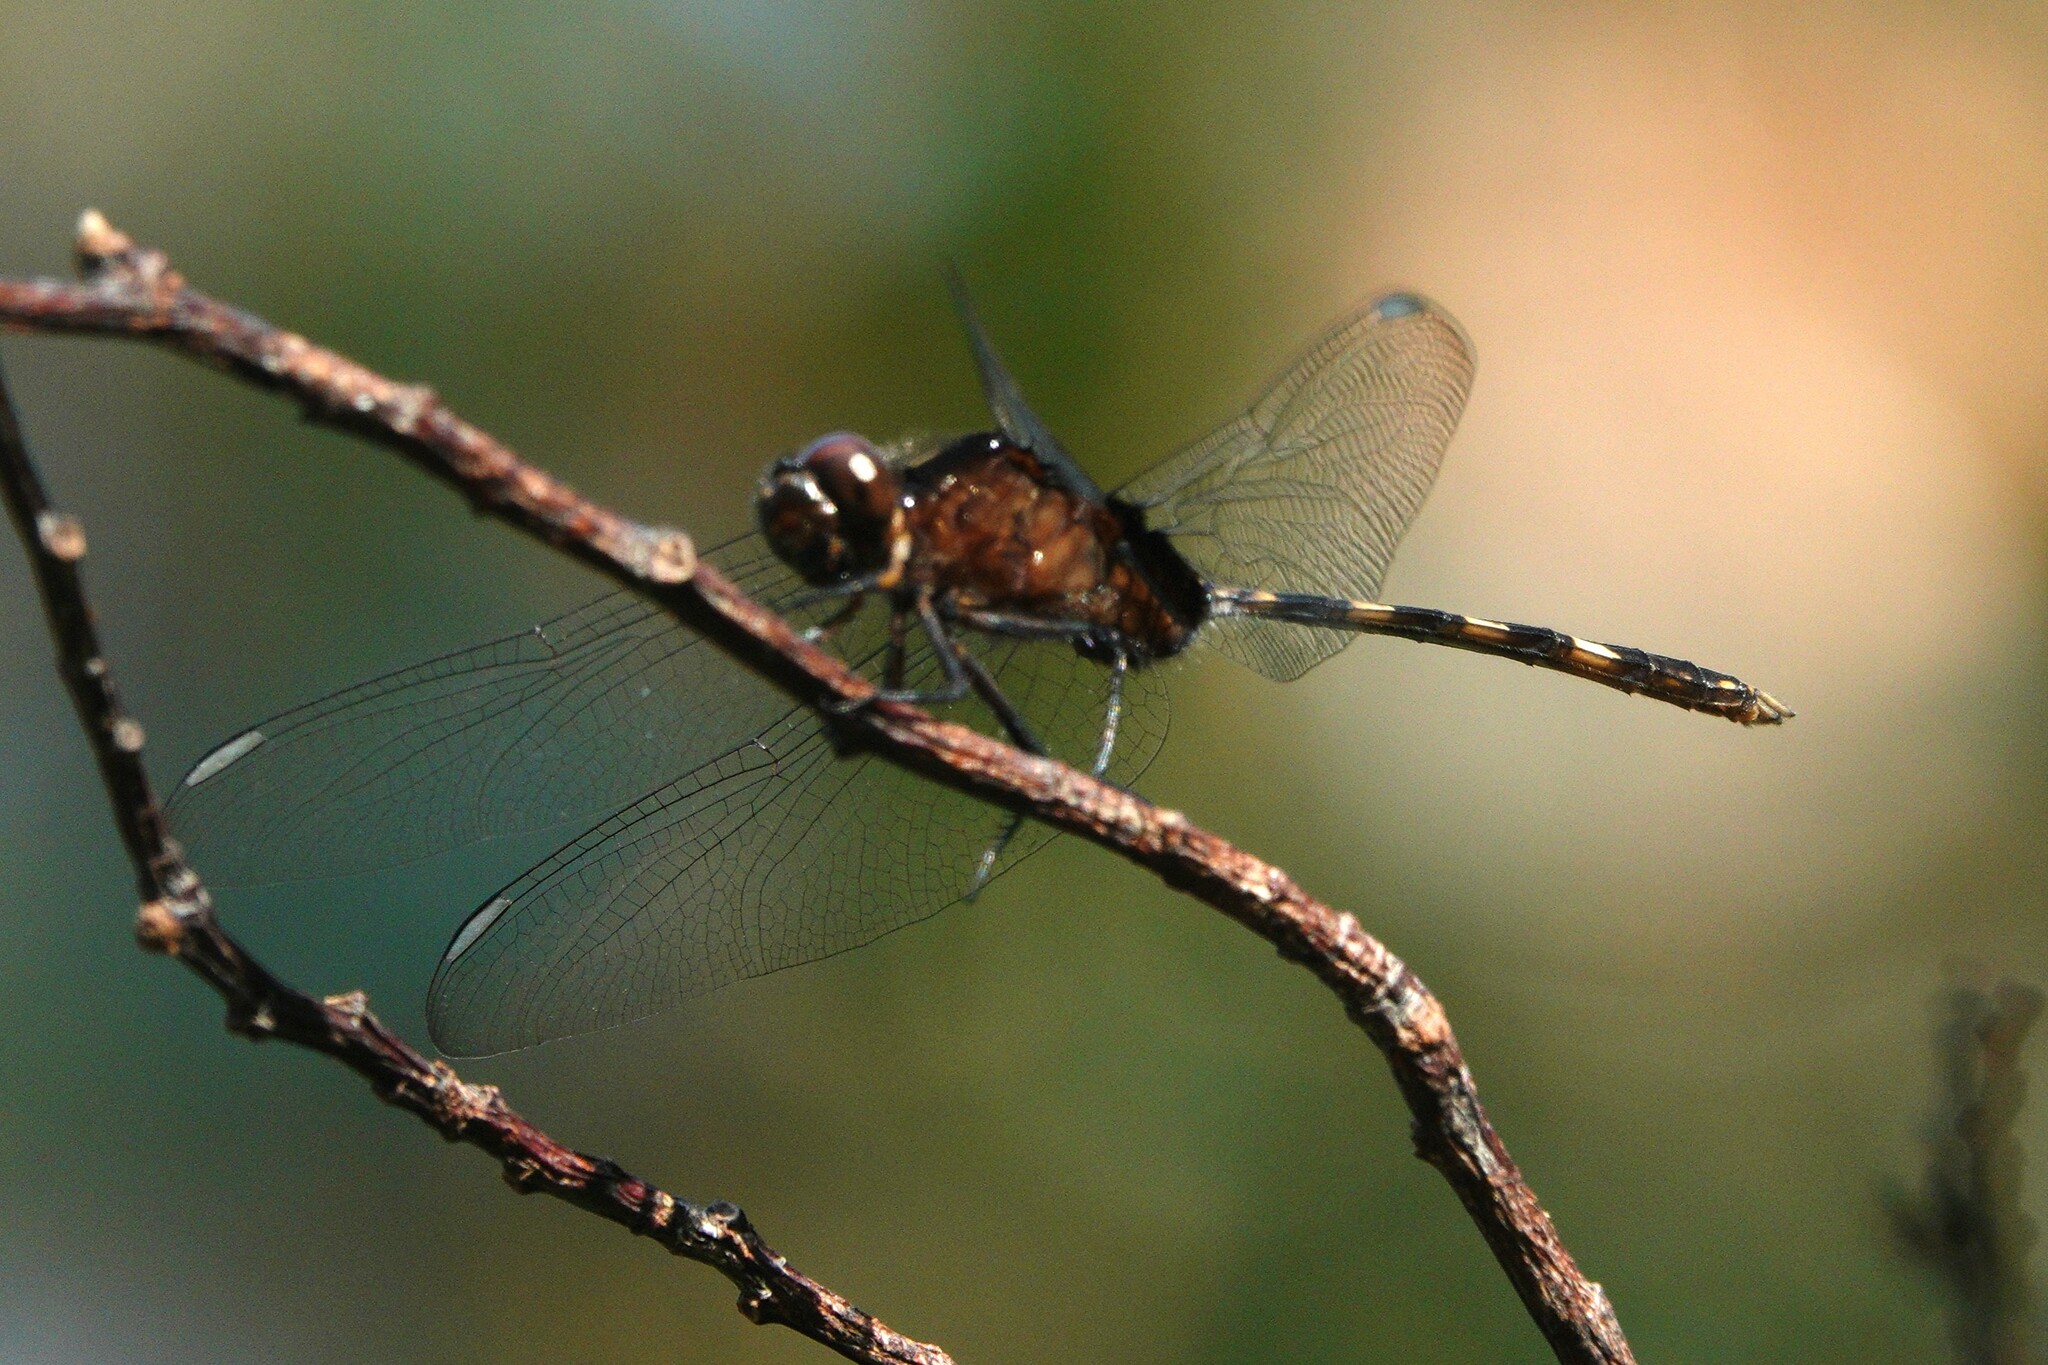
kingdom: Animalia
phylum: Arthropoda
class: Insecta
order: Odonata
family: Libellulidae
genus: Erythemis
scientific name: Erythemis plebeja
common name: Pin-tailed pondhawk
